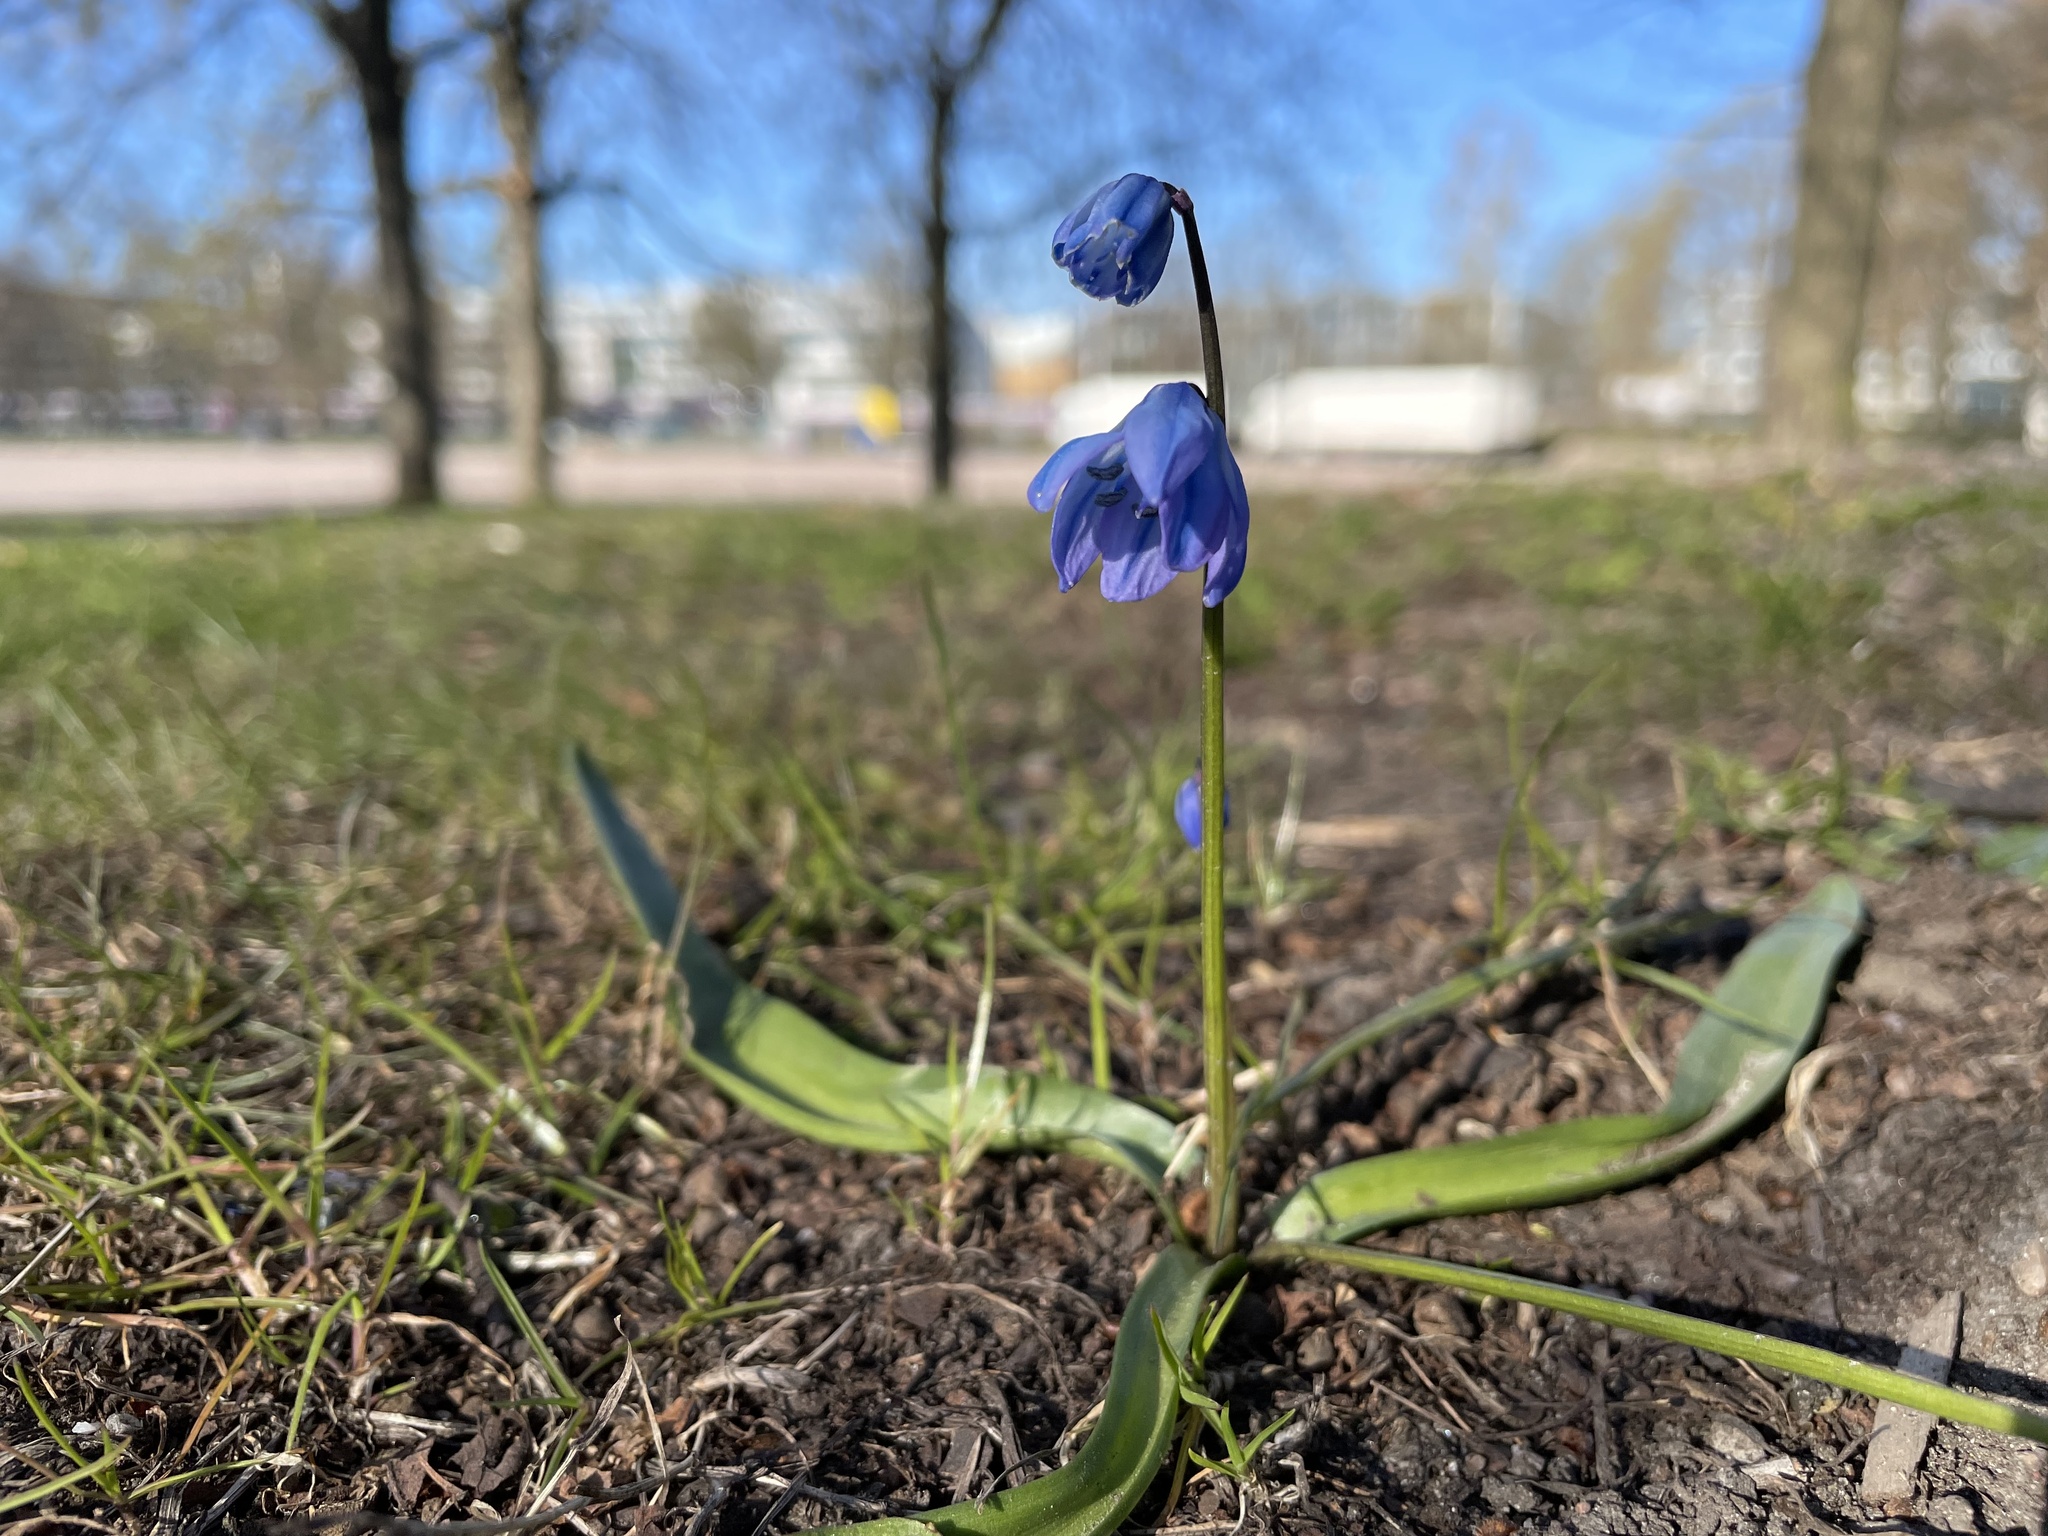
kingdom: Plantae
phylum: Tracheophyta
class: Liliopsida
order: Asparagales
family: Asparagaceae
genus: Scilla
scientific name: Scilla siberica
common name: Siberian squill
